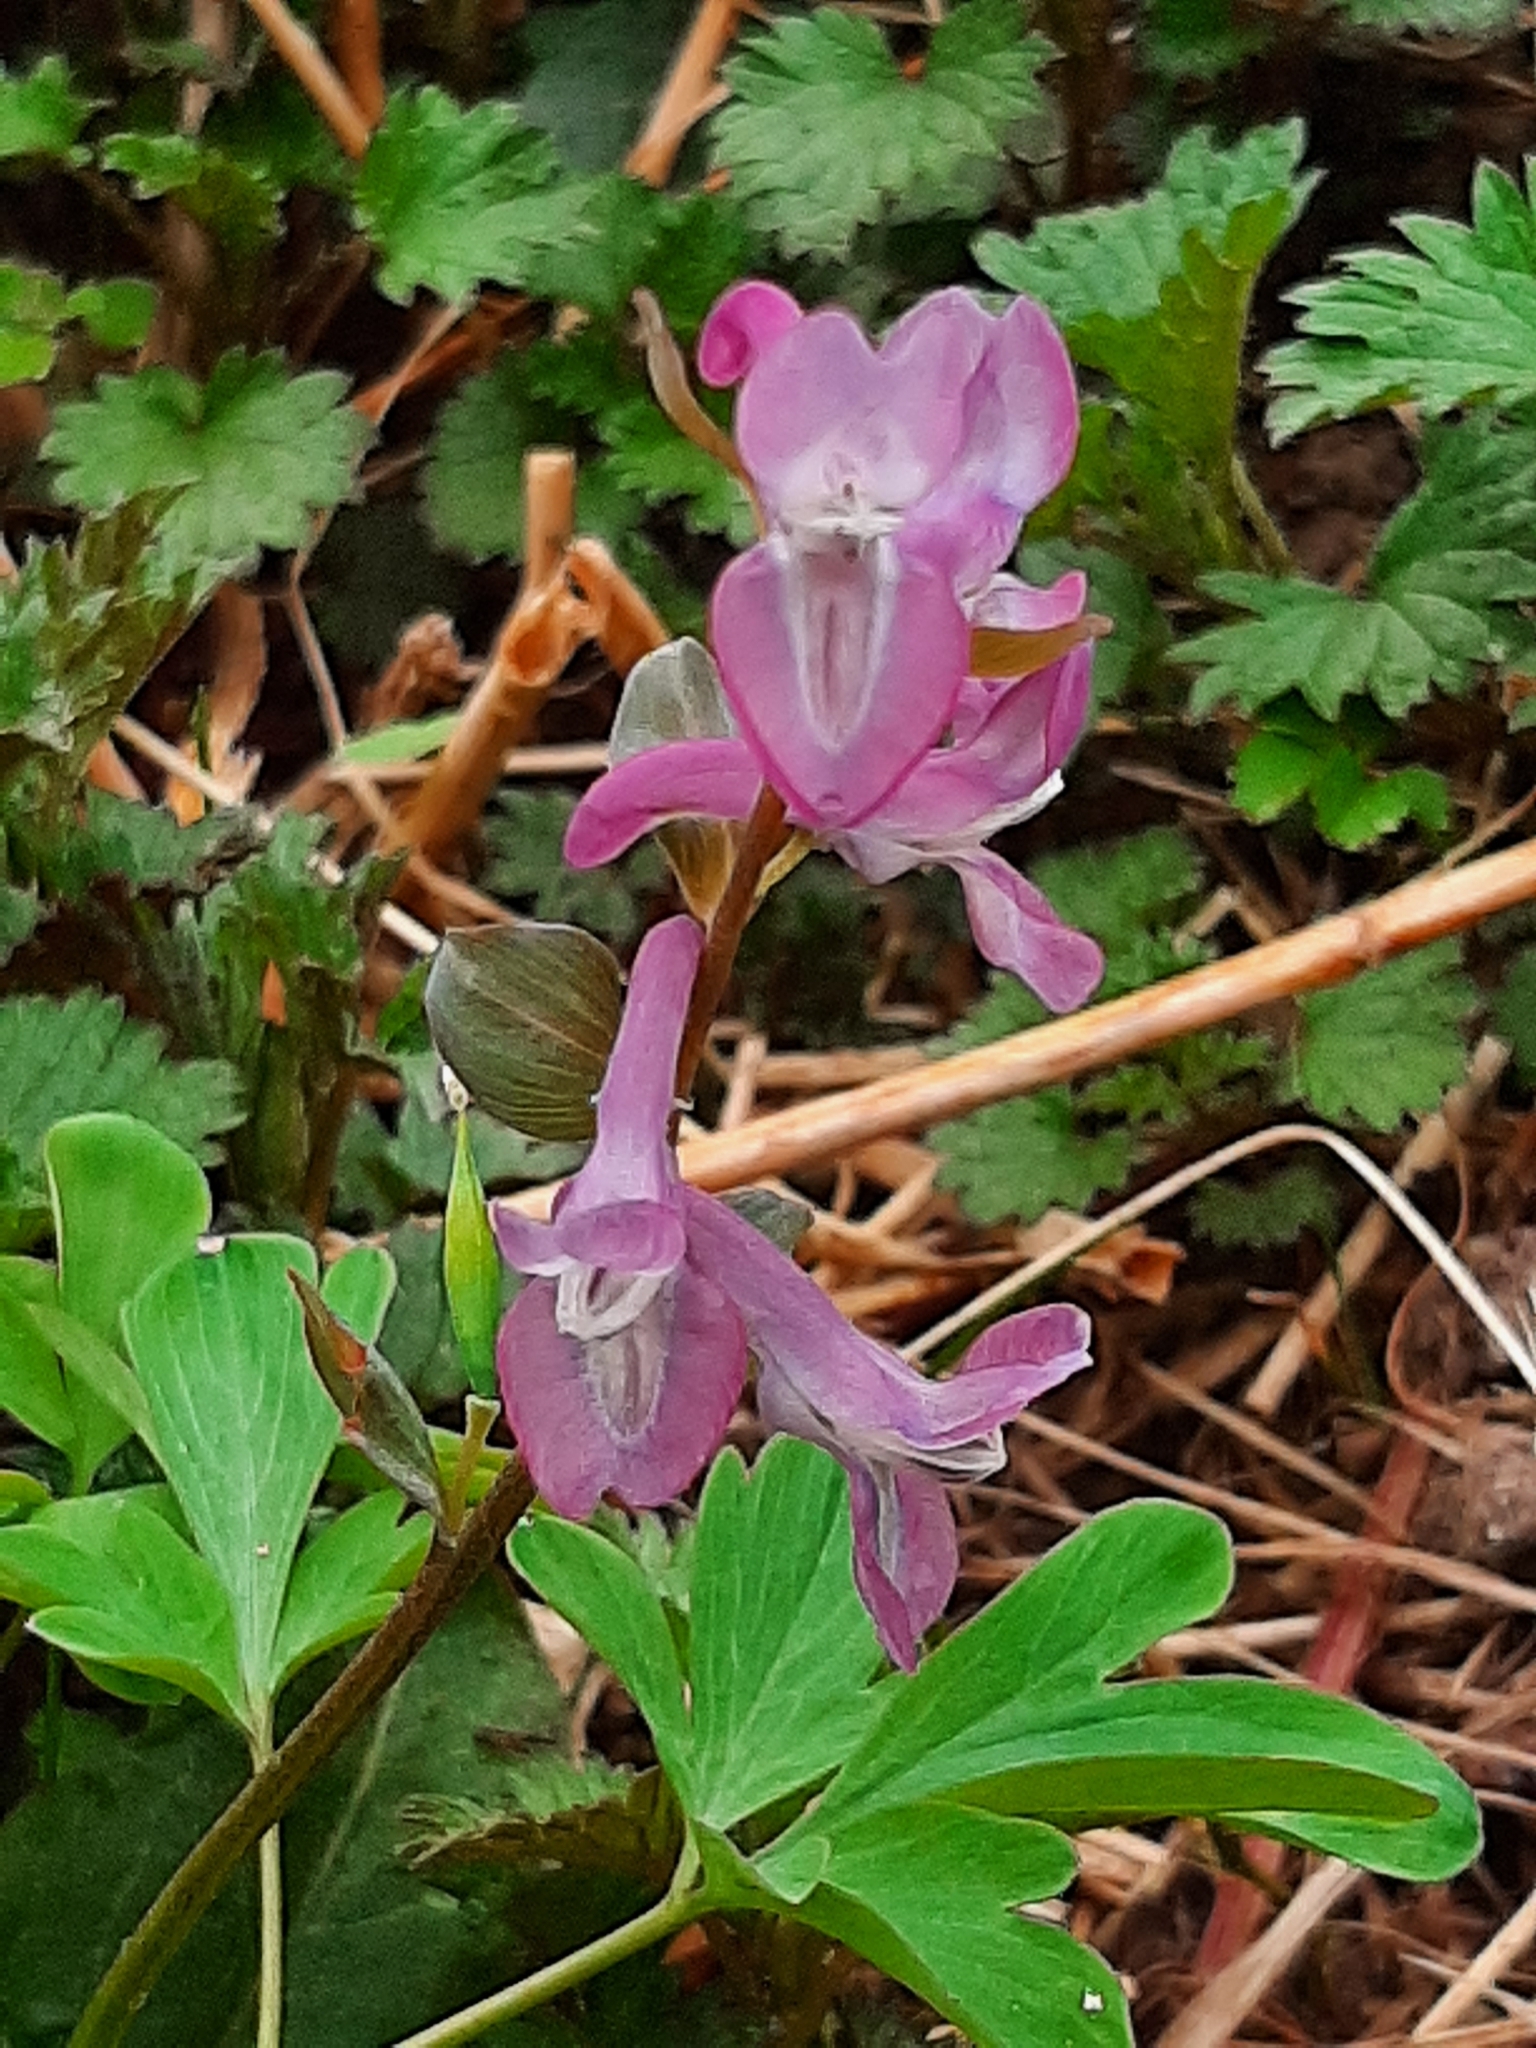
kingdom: Plantae
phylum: Tracheophyta
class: Magnoliopsida
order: Ranunculales
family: Papaveraceae
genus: Corydalis
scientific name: Corydalis cava
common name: Hollowroot
